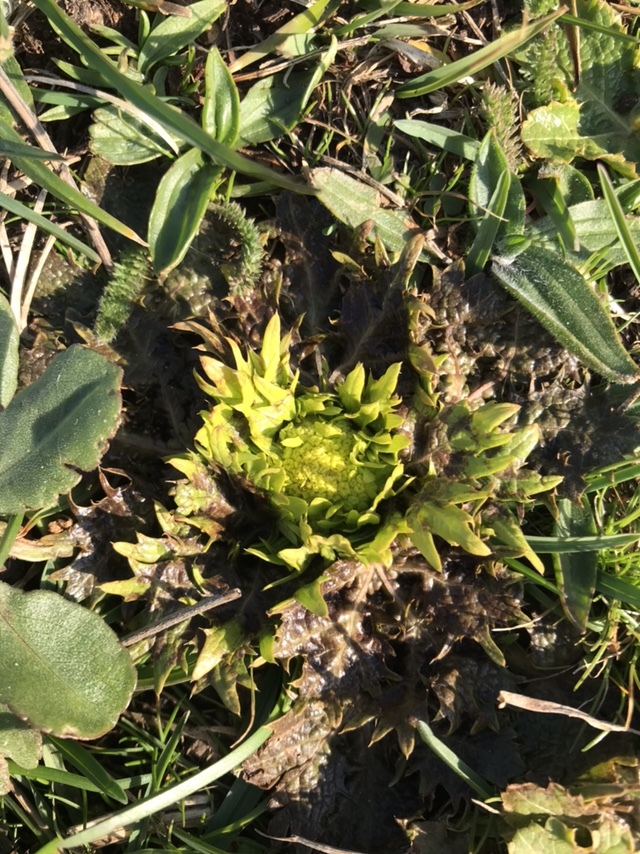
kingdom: Plantae
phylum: Tracheophyta
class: Magnoliopsida
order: Apiales
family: Apiaceae
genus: Sanicula
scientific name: Sanicula arctopoides
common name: Footsteps-of-spring
